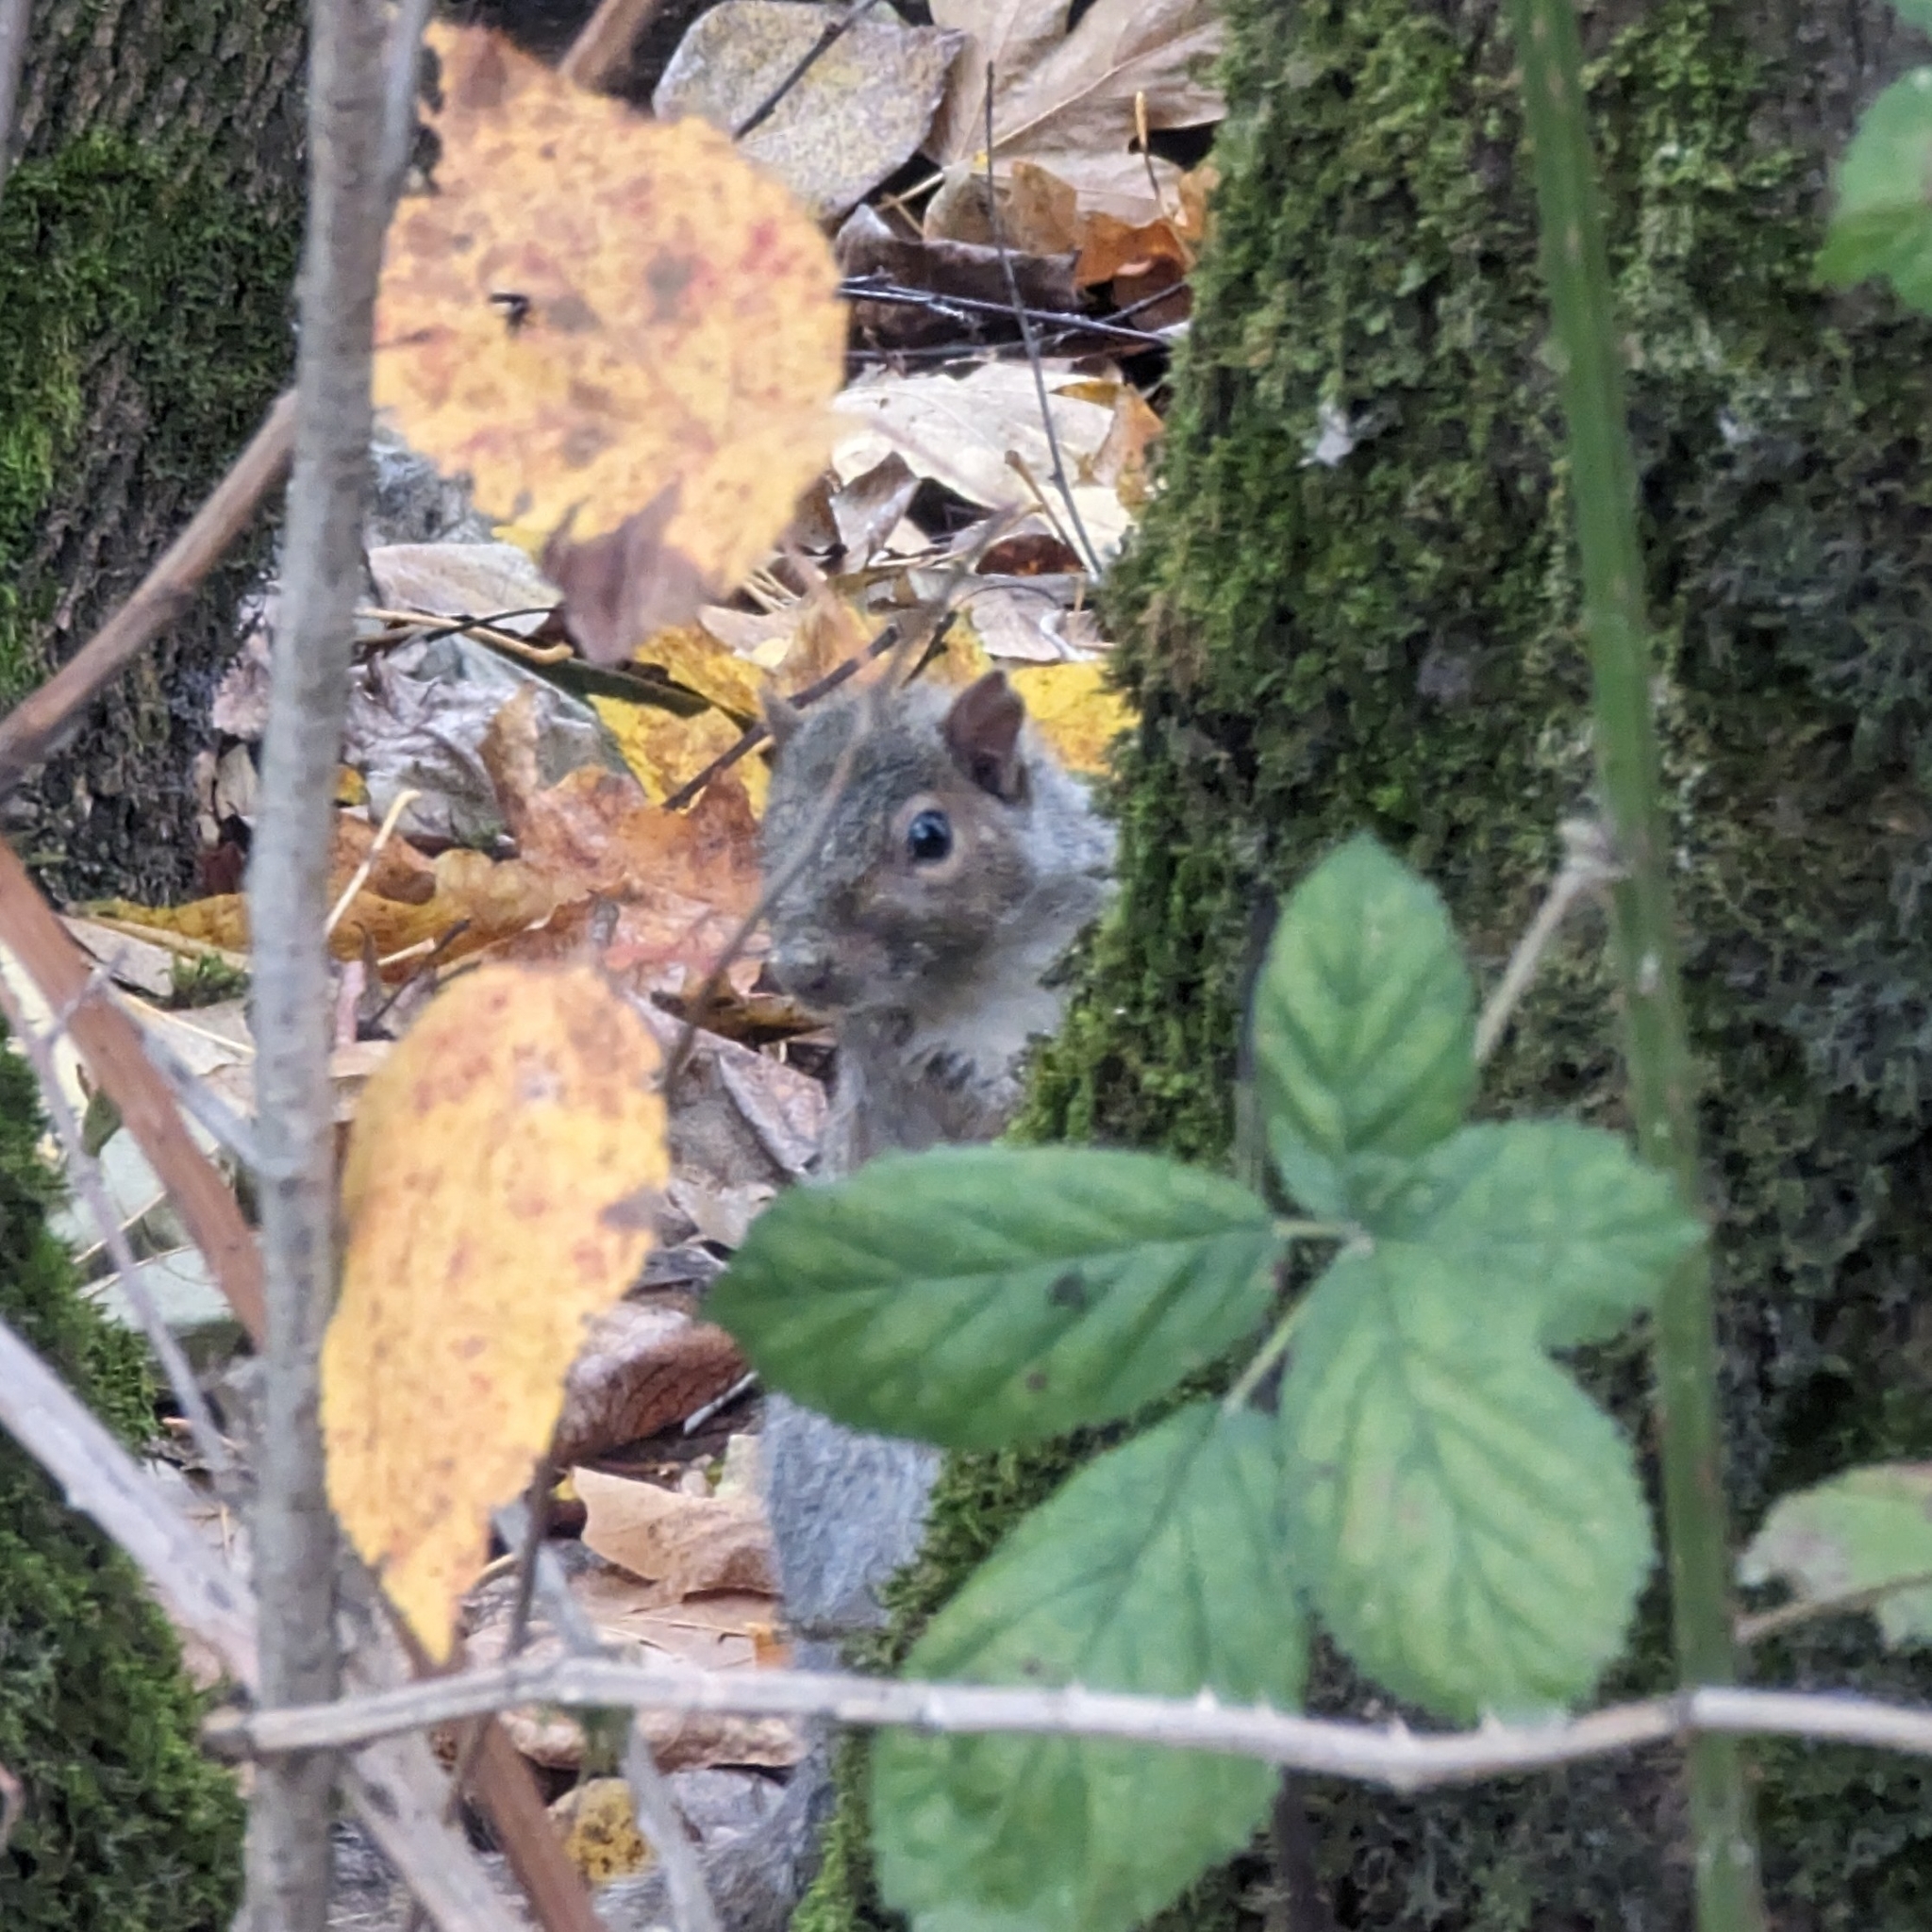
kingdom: Animalia
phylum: Chordata
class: Mammalia
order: Rodentia
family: Sciuridae
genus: Sciurus
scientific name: Sciurus carolinensis
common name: Eastern gray squirrel
